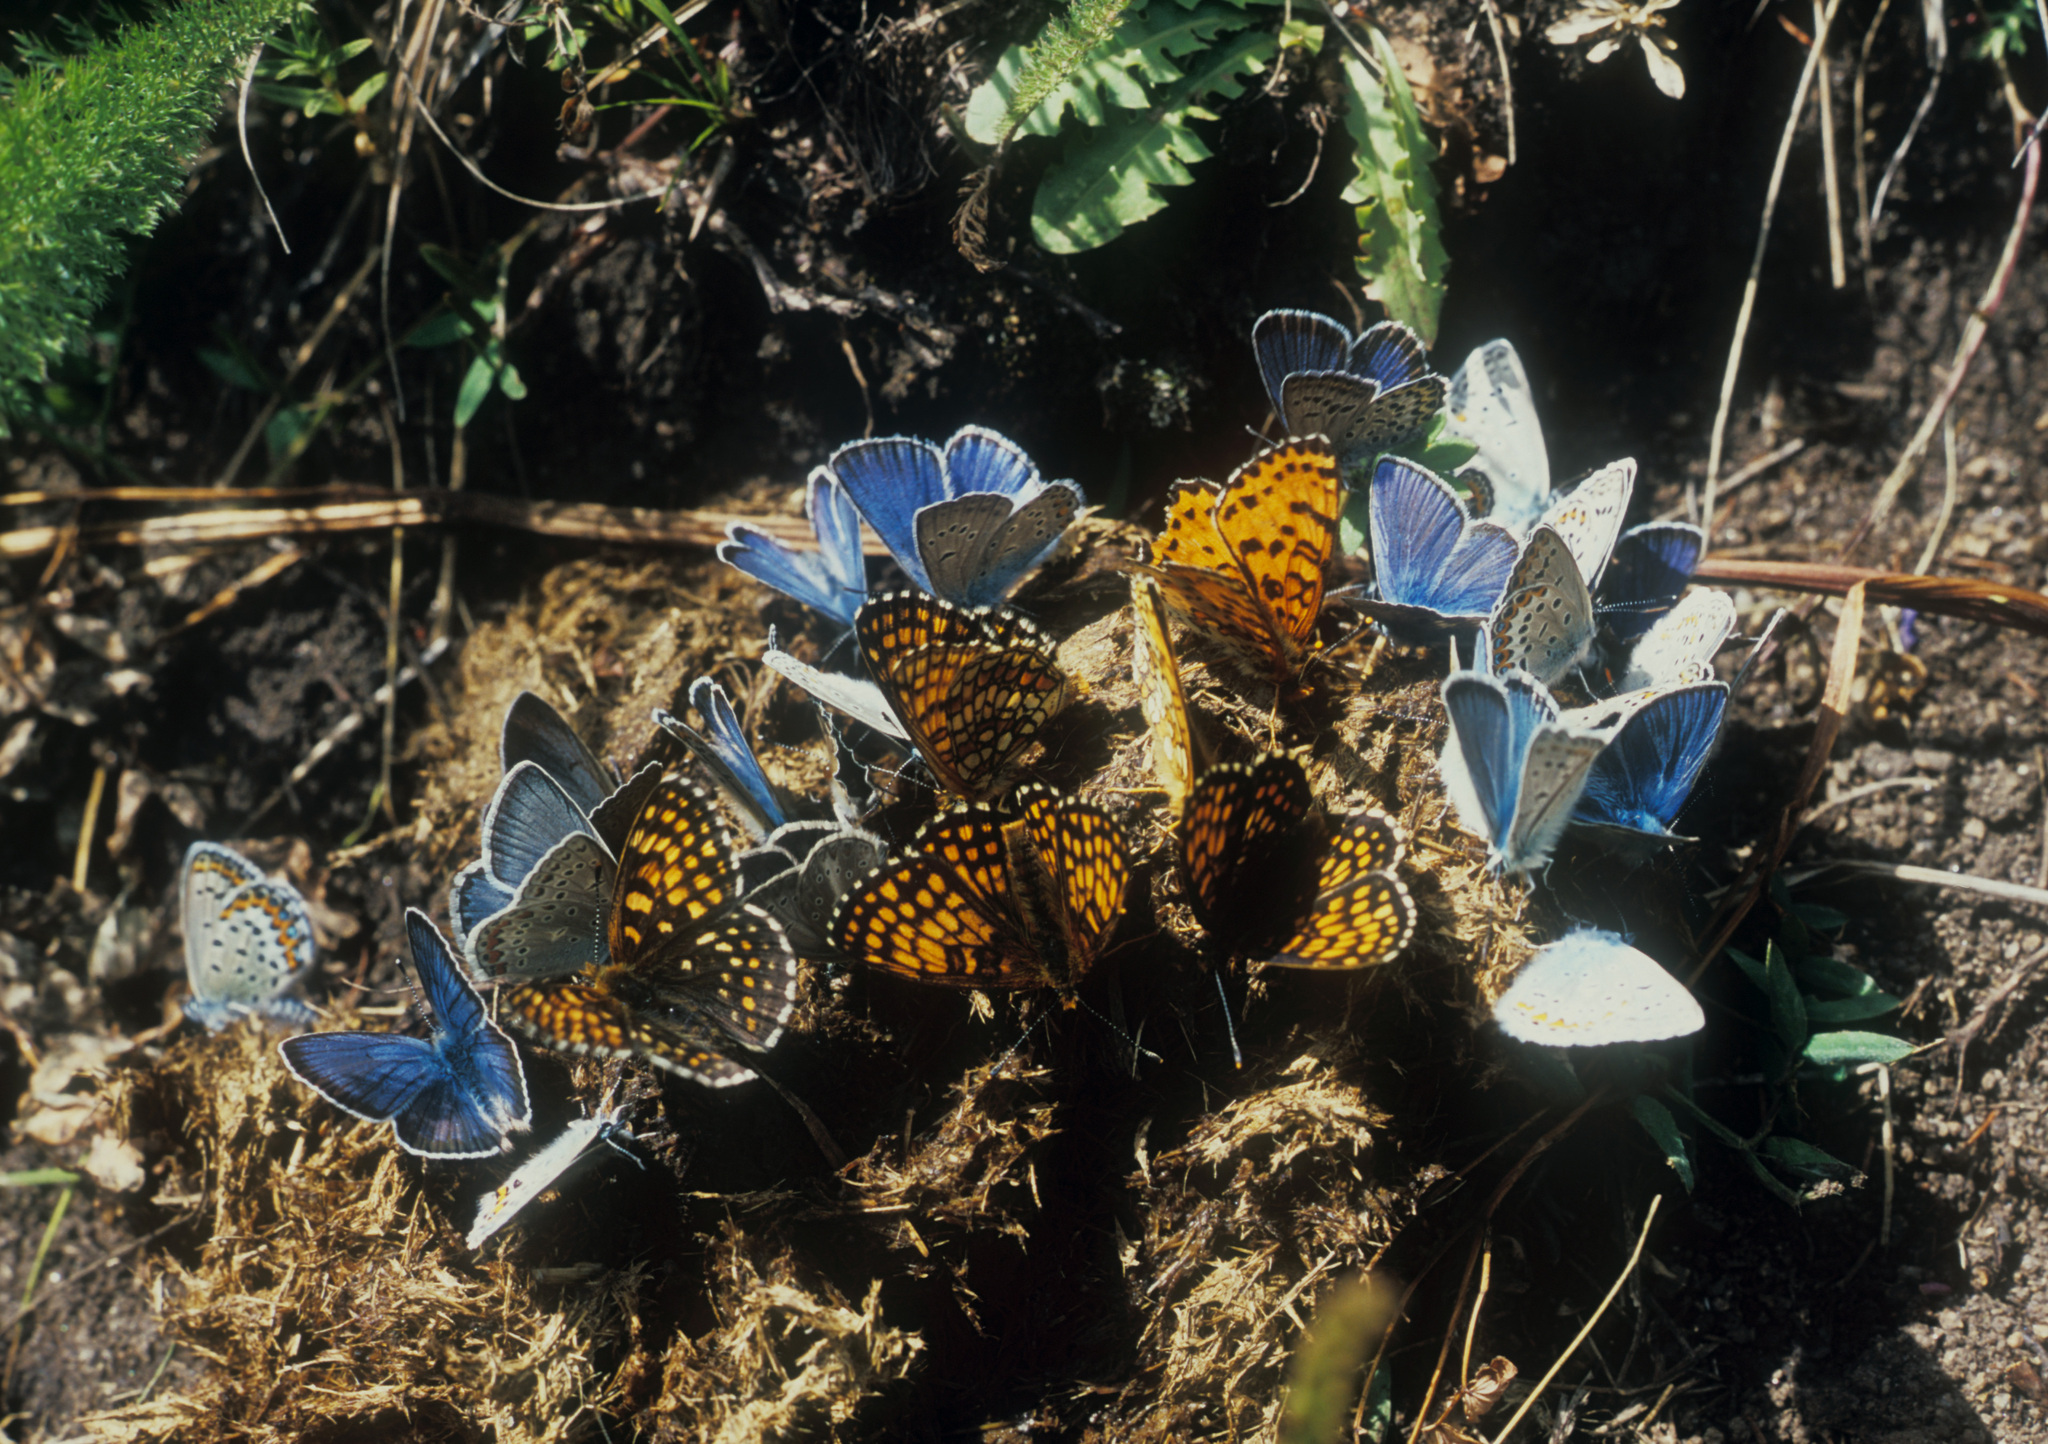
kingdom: Animalia
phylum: Arthropoda
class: Insecta
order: Lepidoptera
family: Lycaenidae
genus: Plebejus
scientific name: Plebejus amanda
